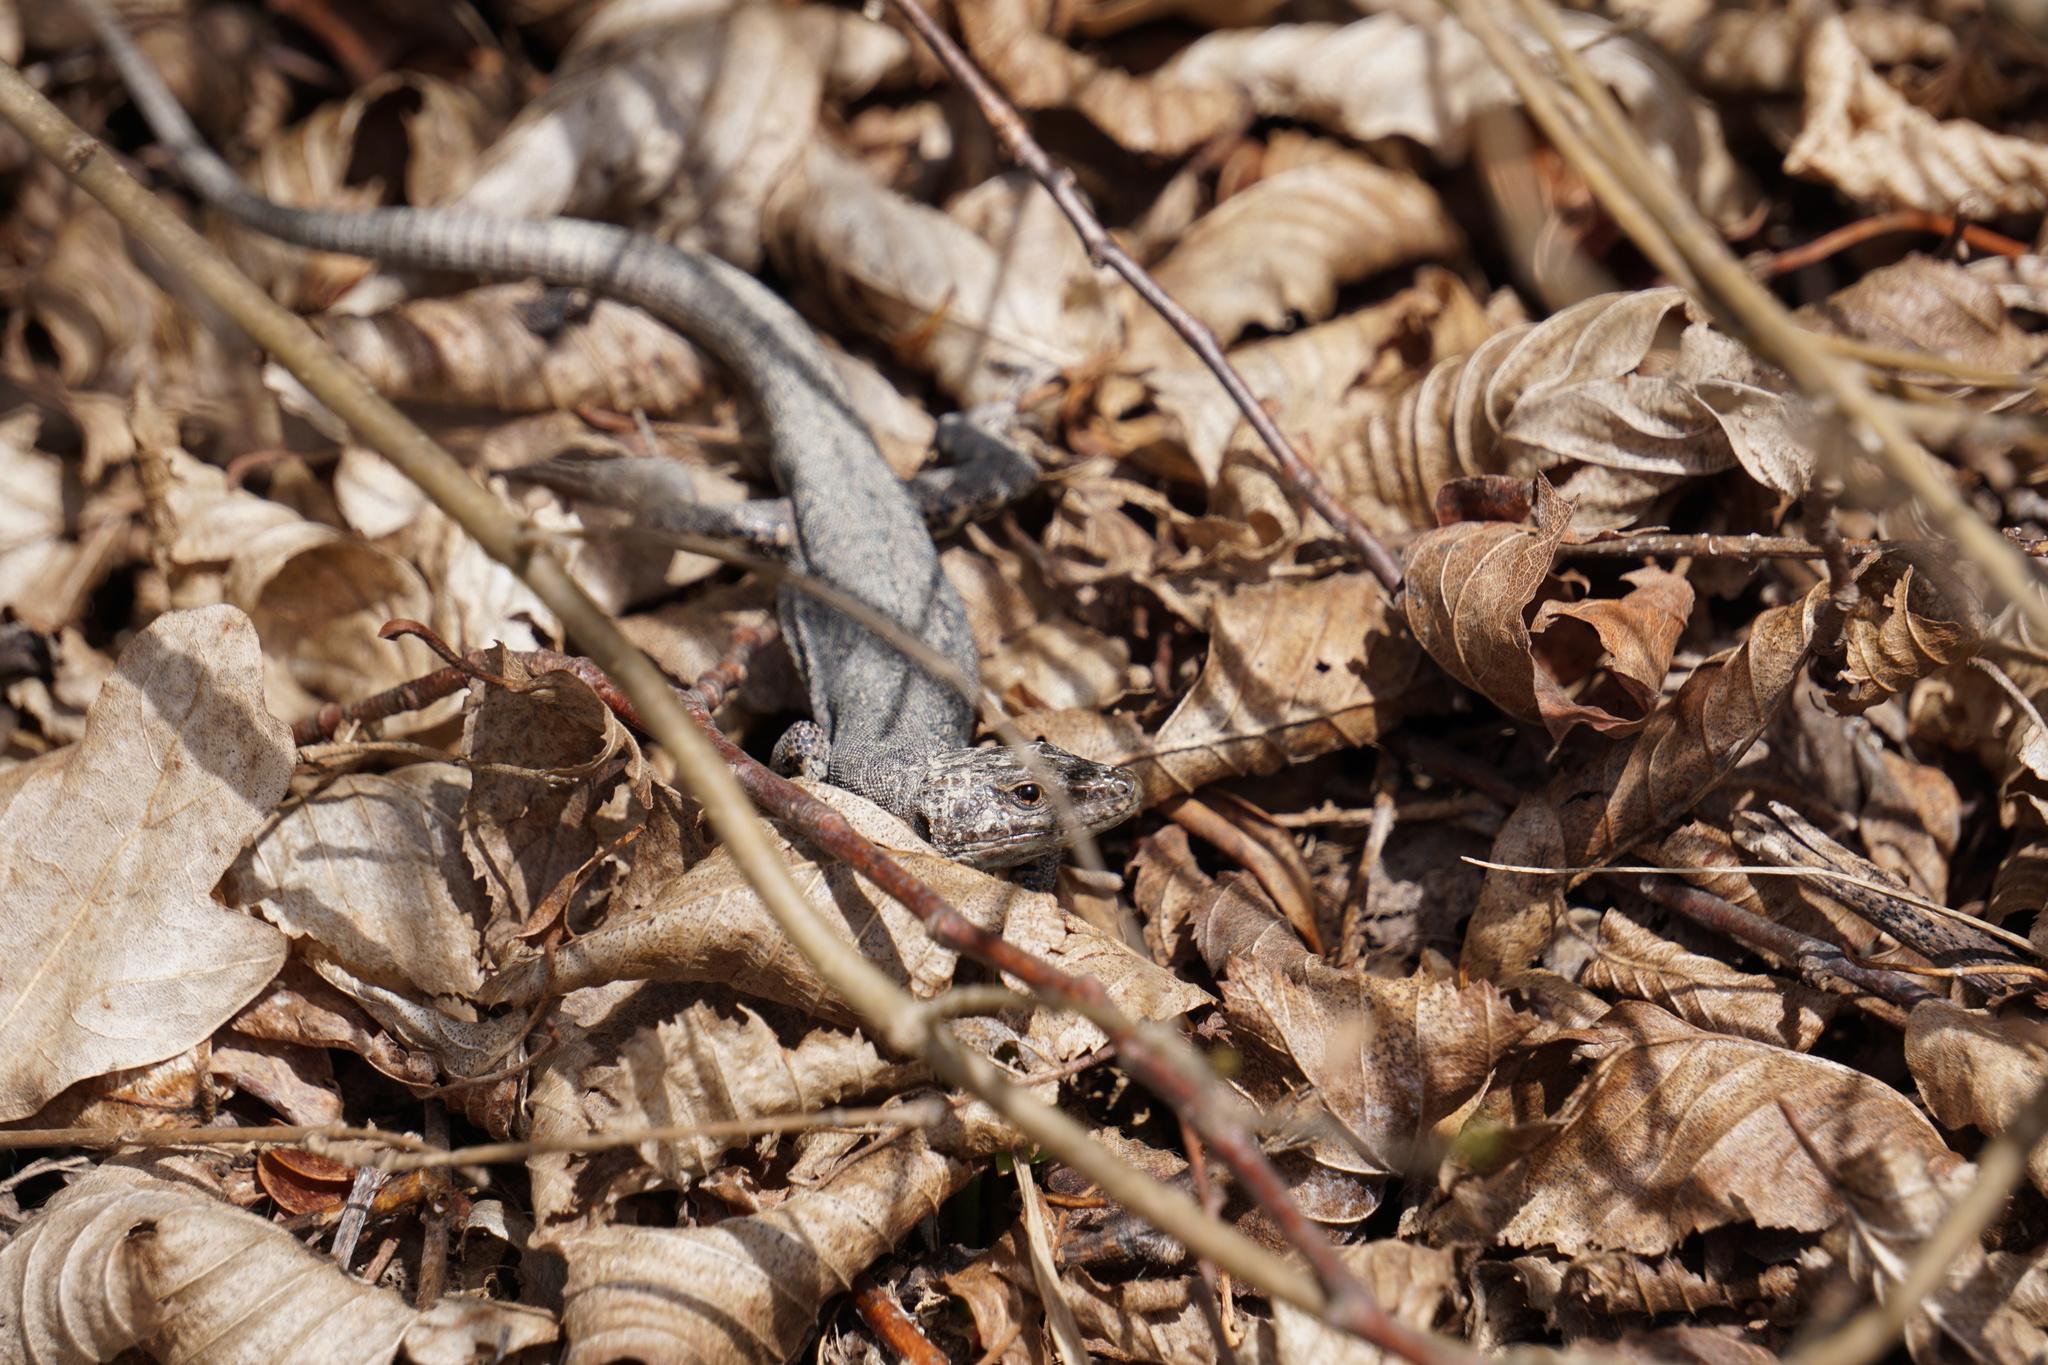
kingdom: Animalia
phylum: Chordata
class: Squamata
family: Lacertidae
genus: Podarcis
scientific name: Podarcis muralis
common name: Common wall lizard
